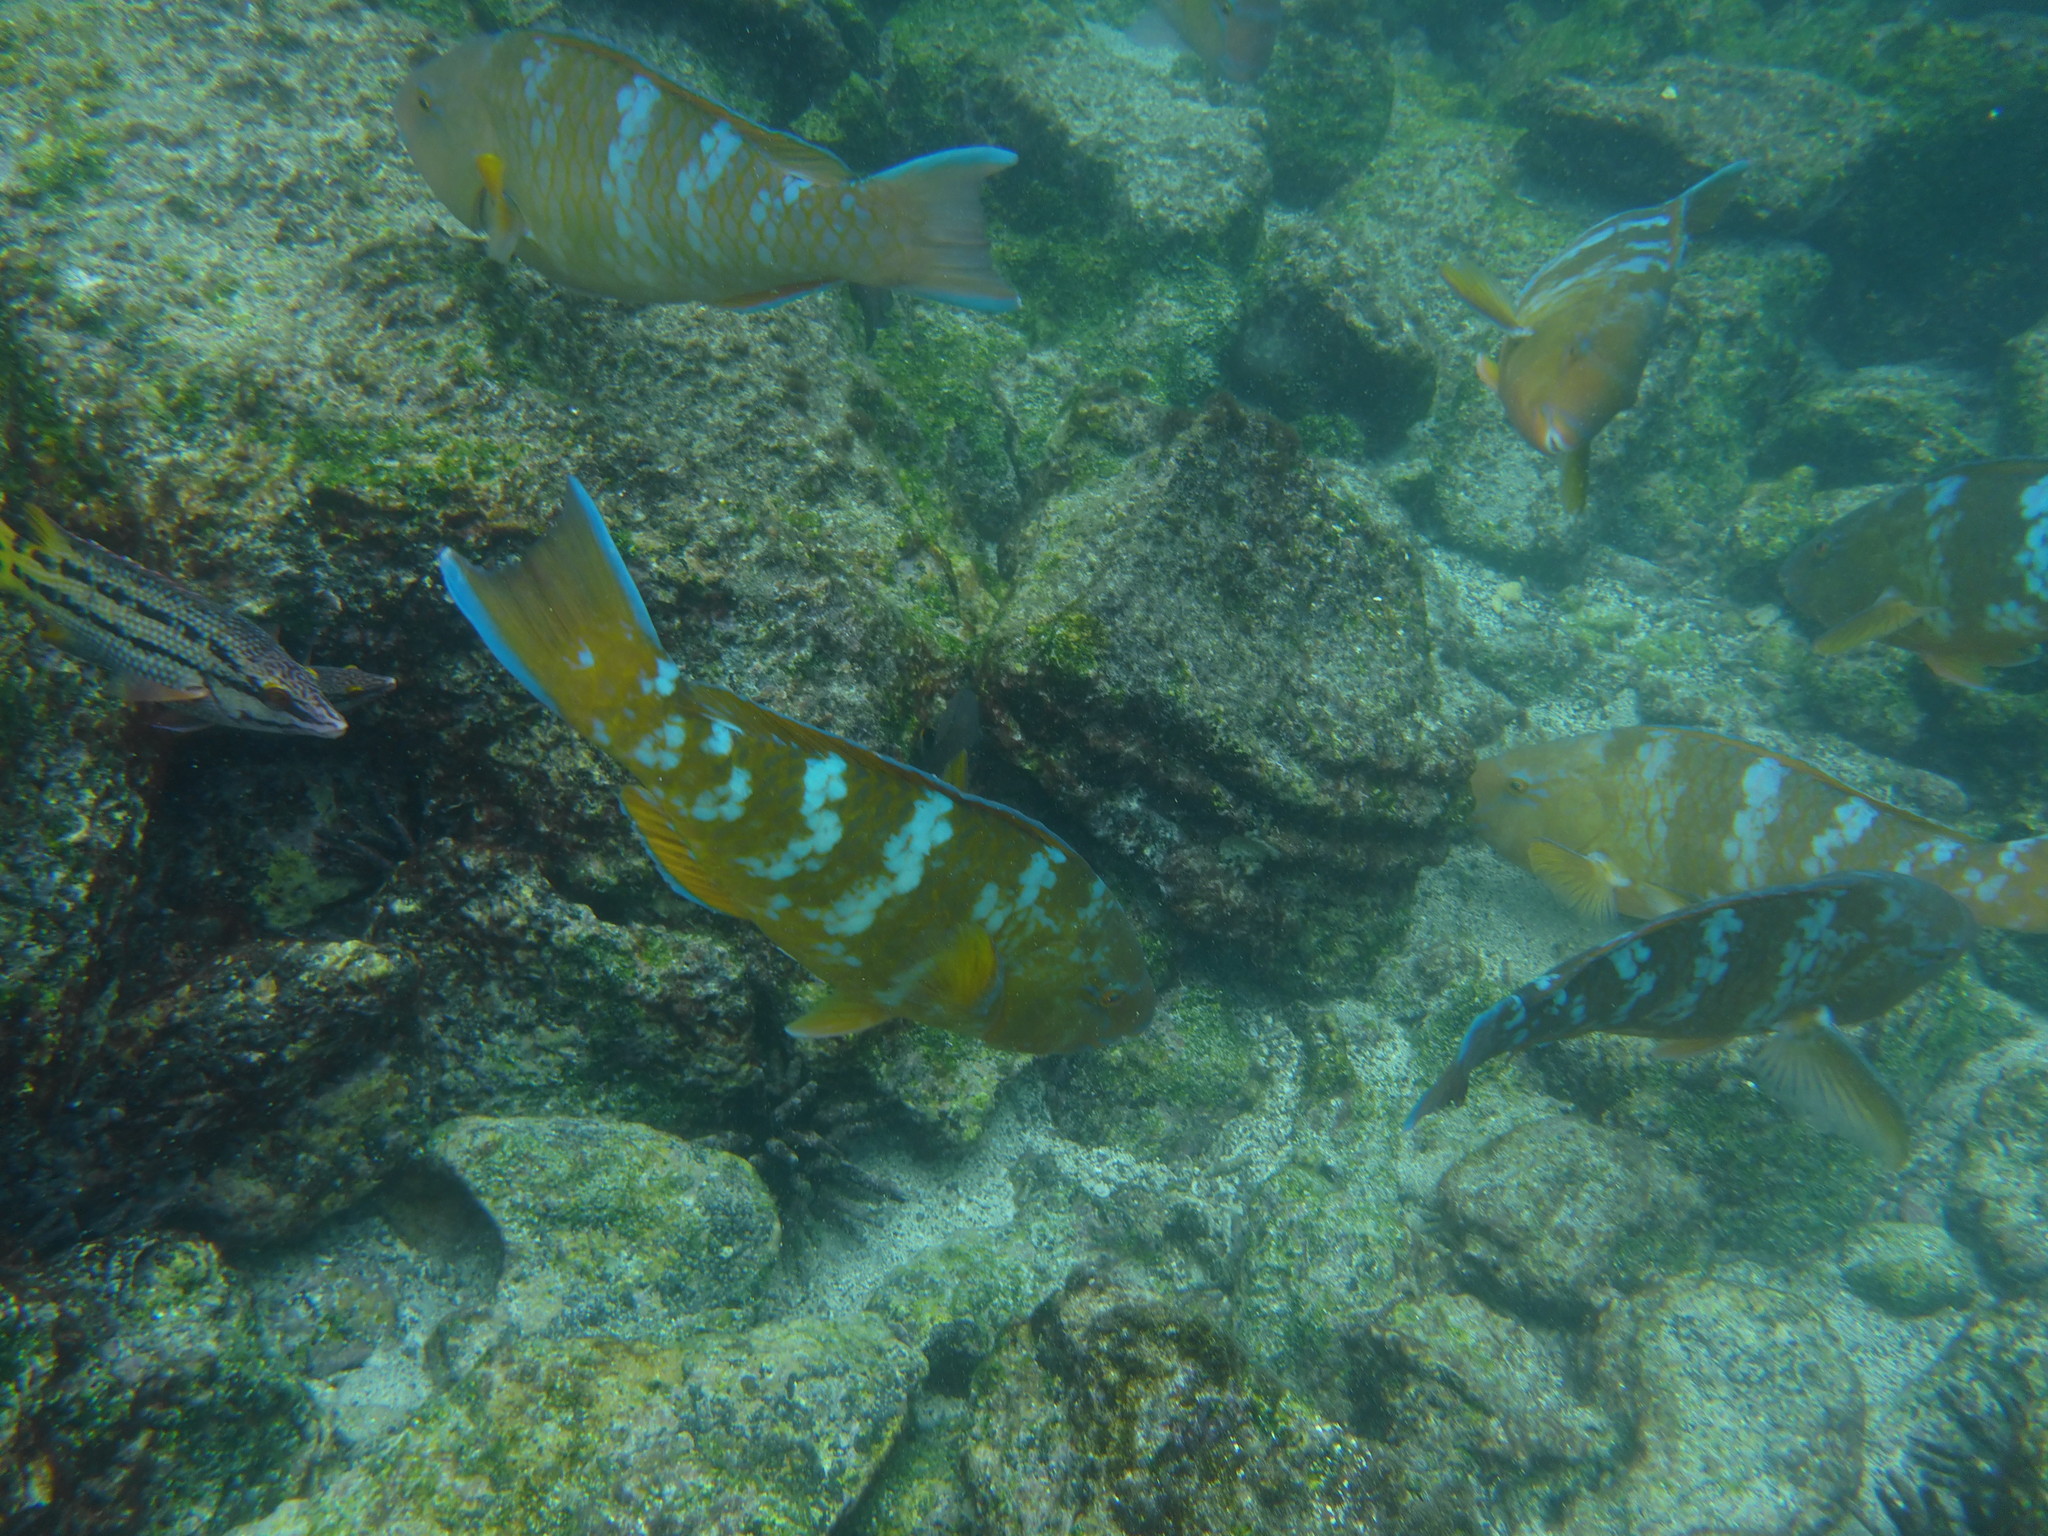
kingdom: Animalia
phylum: Chordata
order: Perciformes
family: Scaridae
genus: Scarus
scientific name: Scarus ghobban
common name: Blue-barred parrotfish
